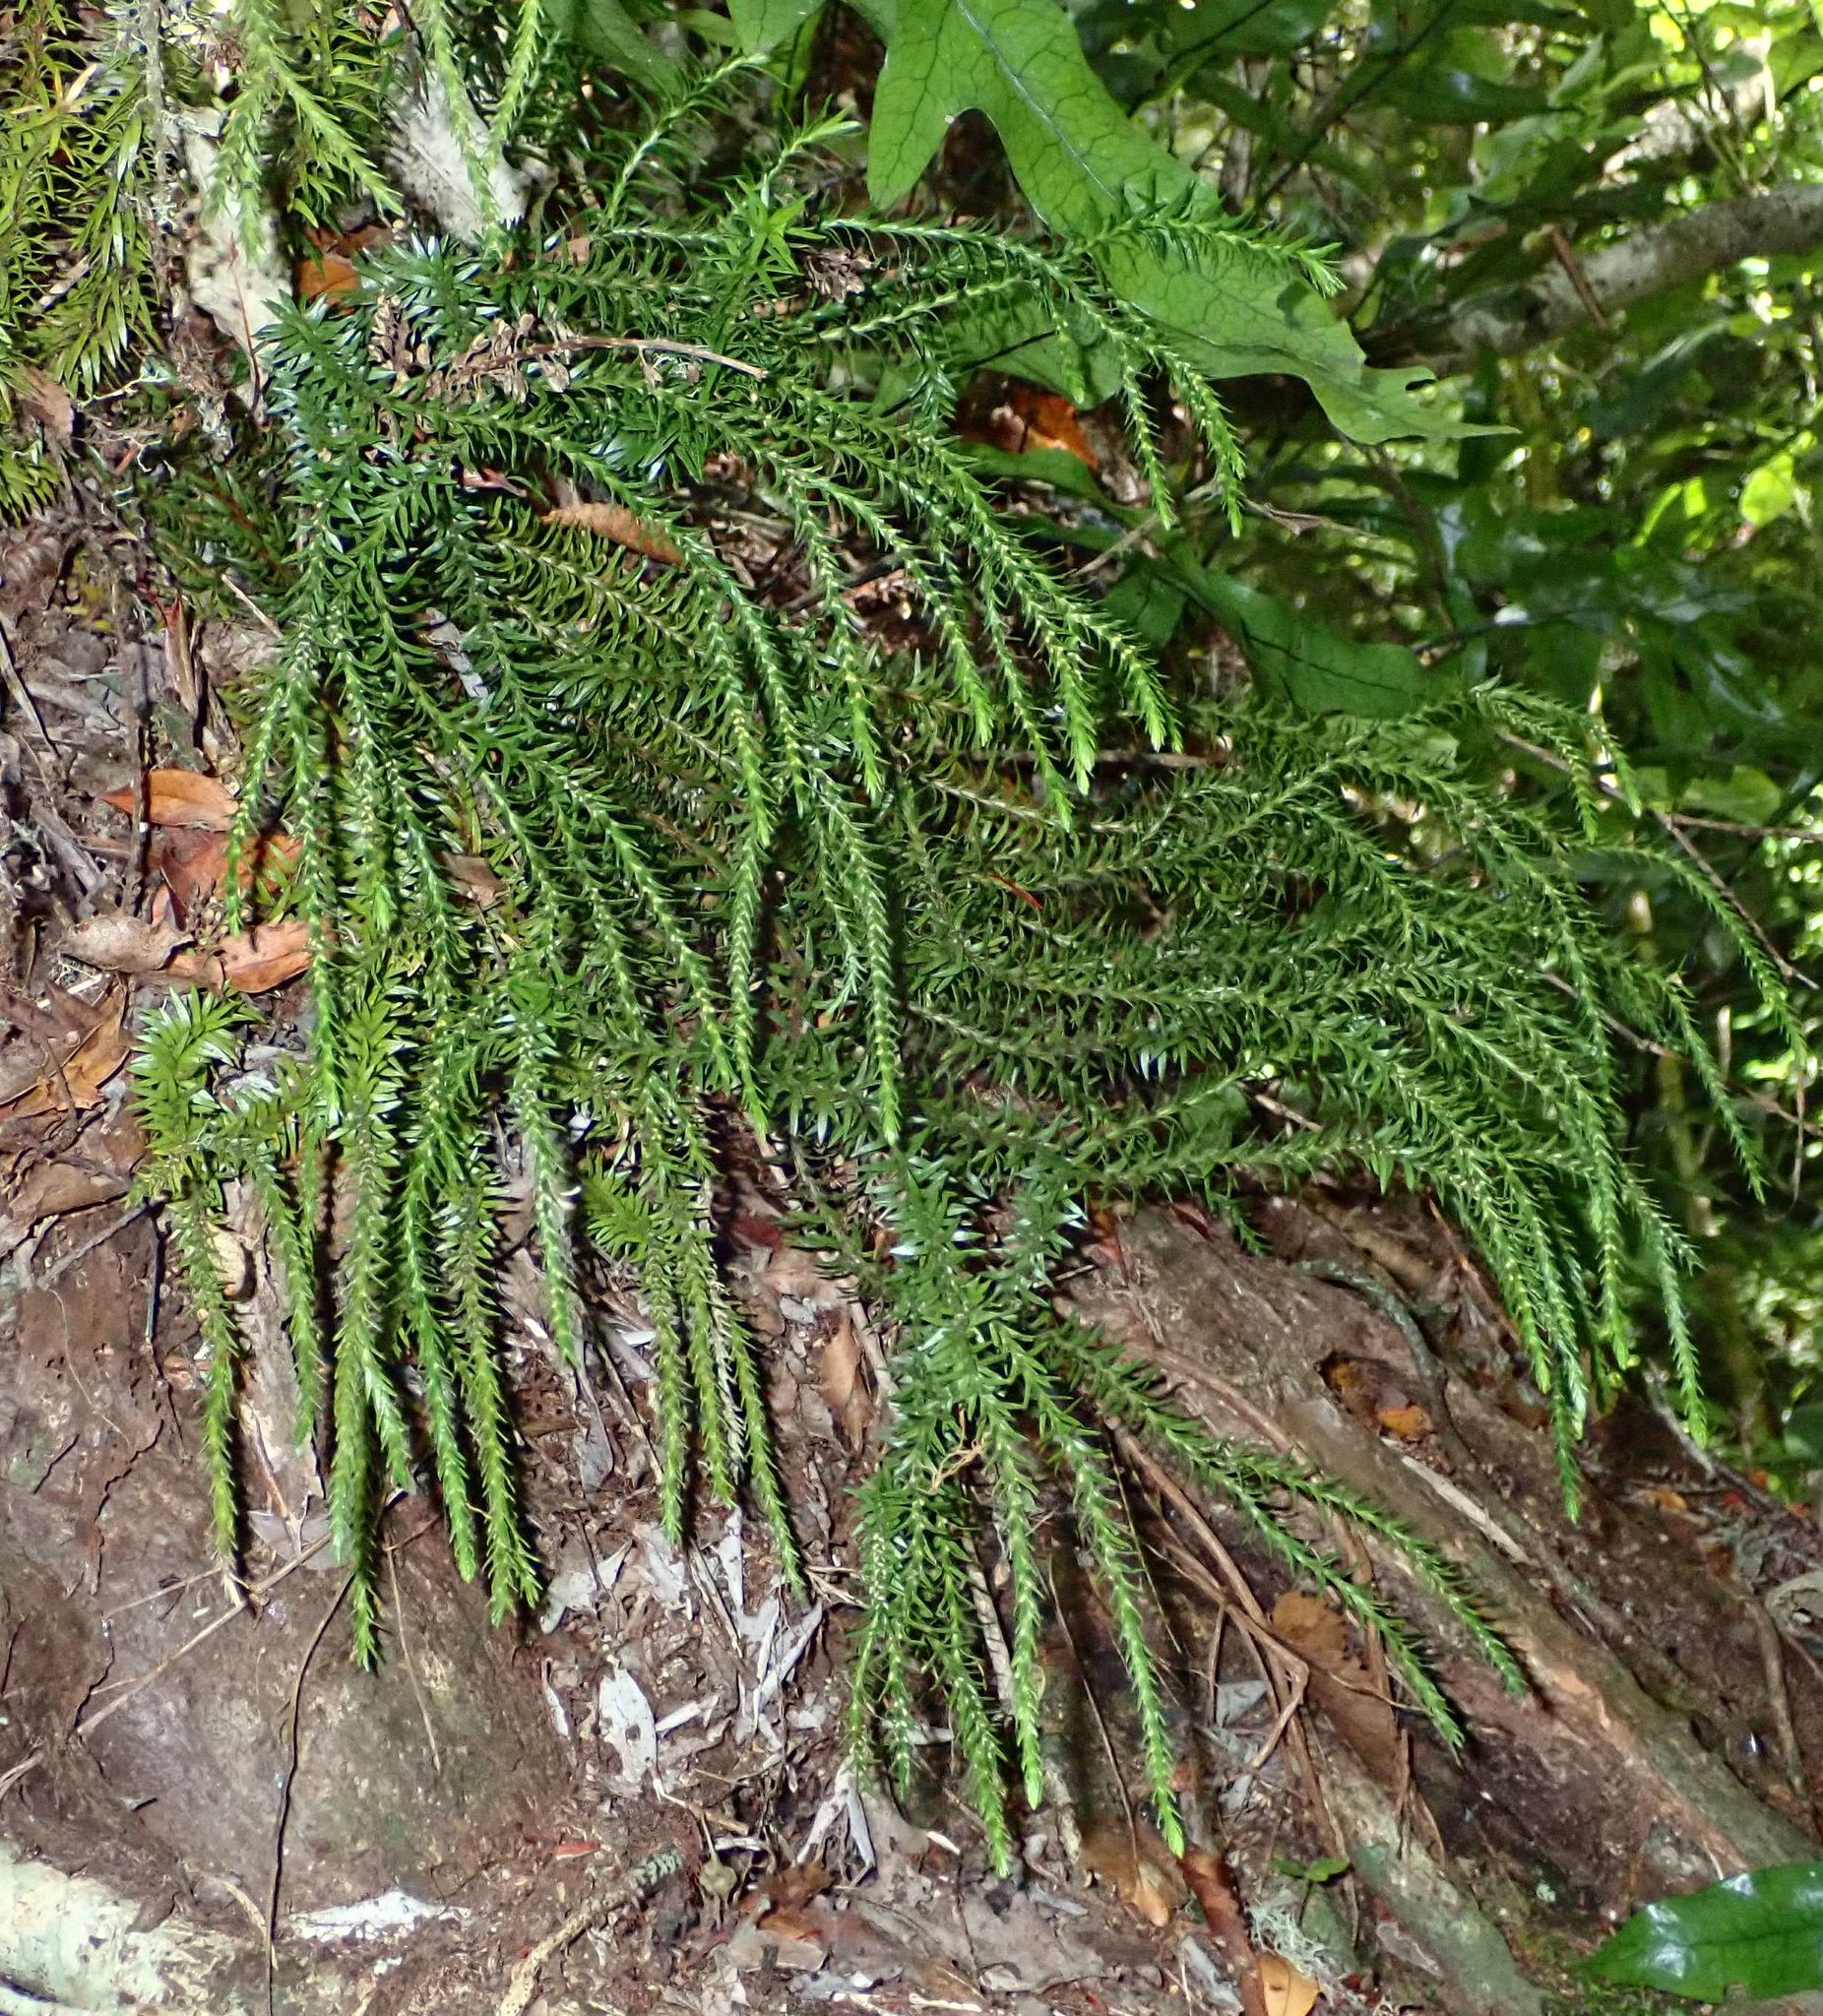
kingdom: Plantae
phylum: Tracheophyta
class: Lycopodiopsida
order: Lycopodiales
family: Lycopodiaceae
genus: Phlegmariurus
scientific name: Phlegmariurus varius
